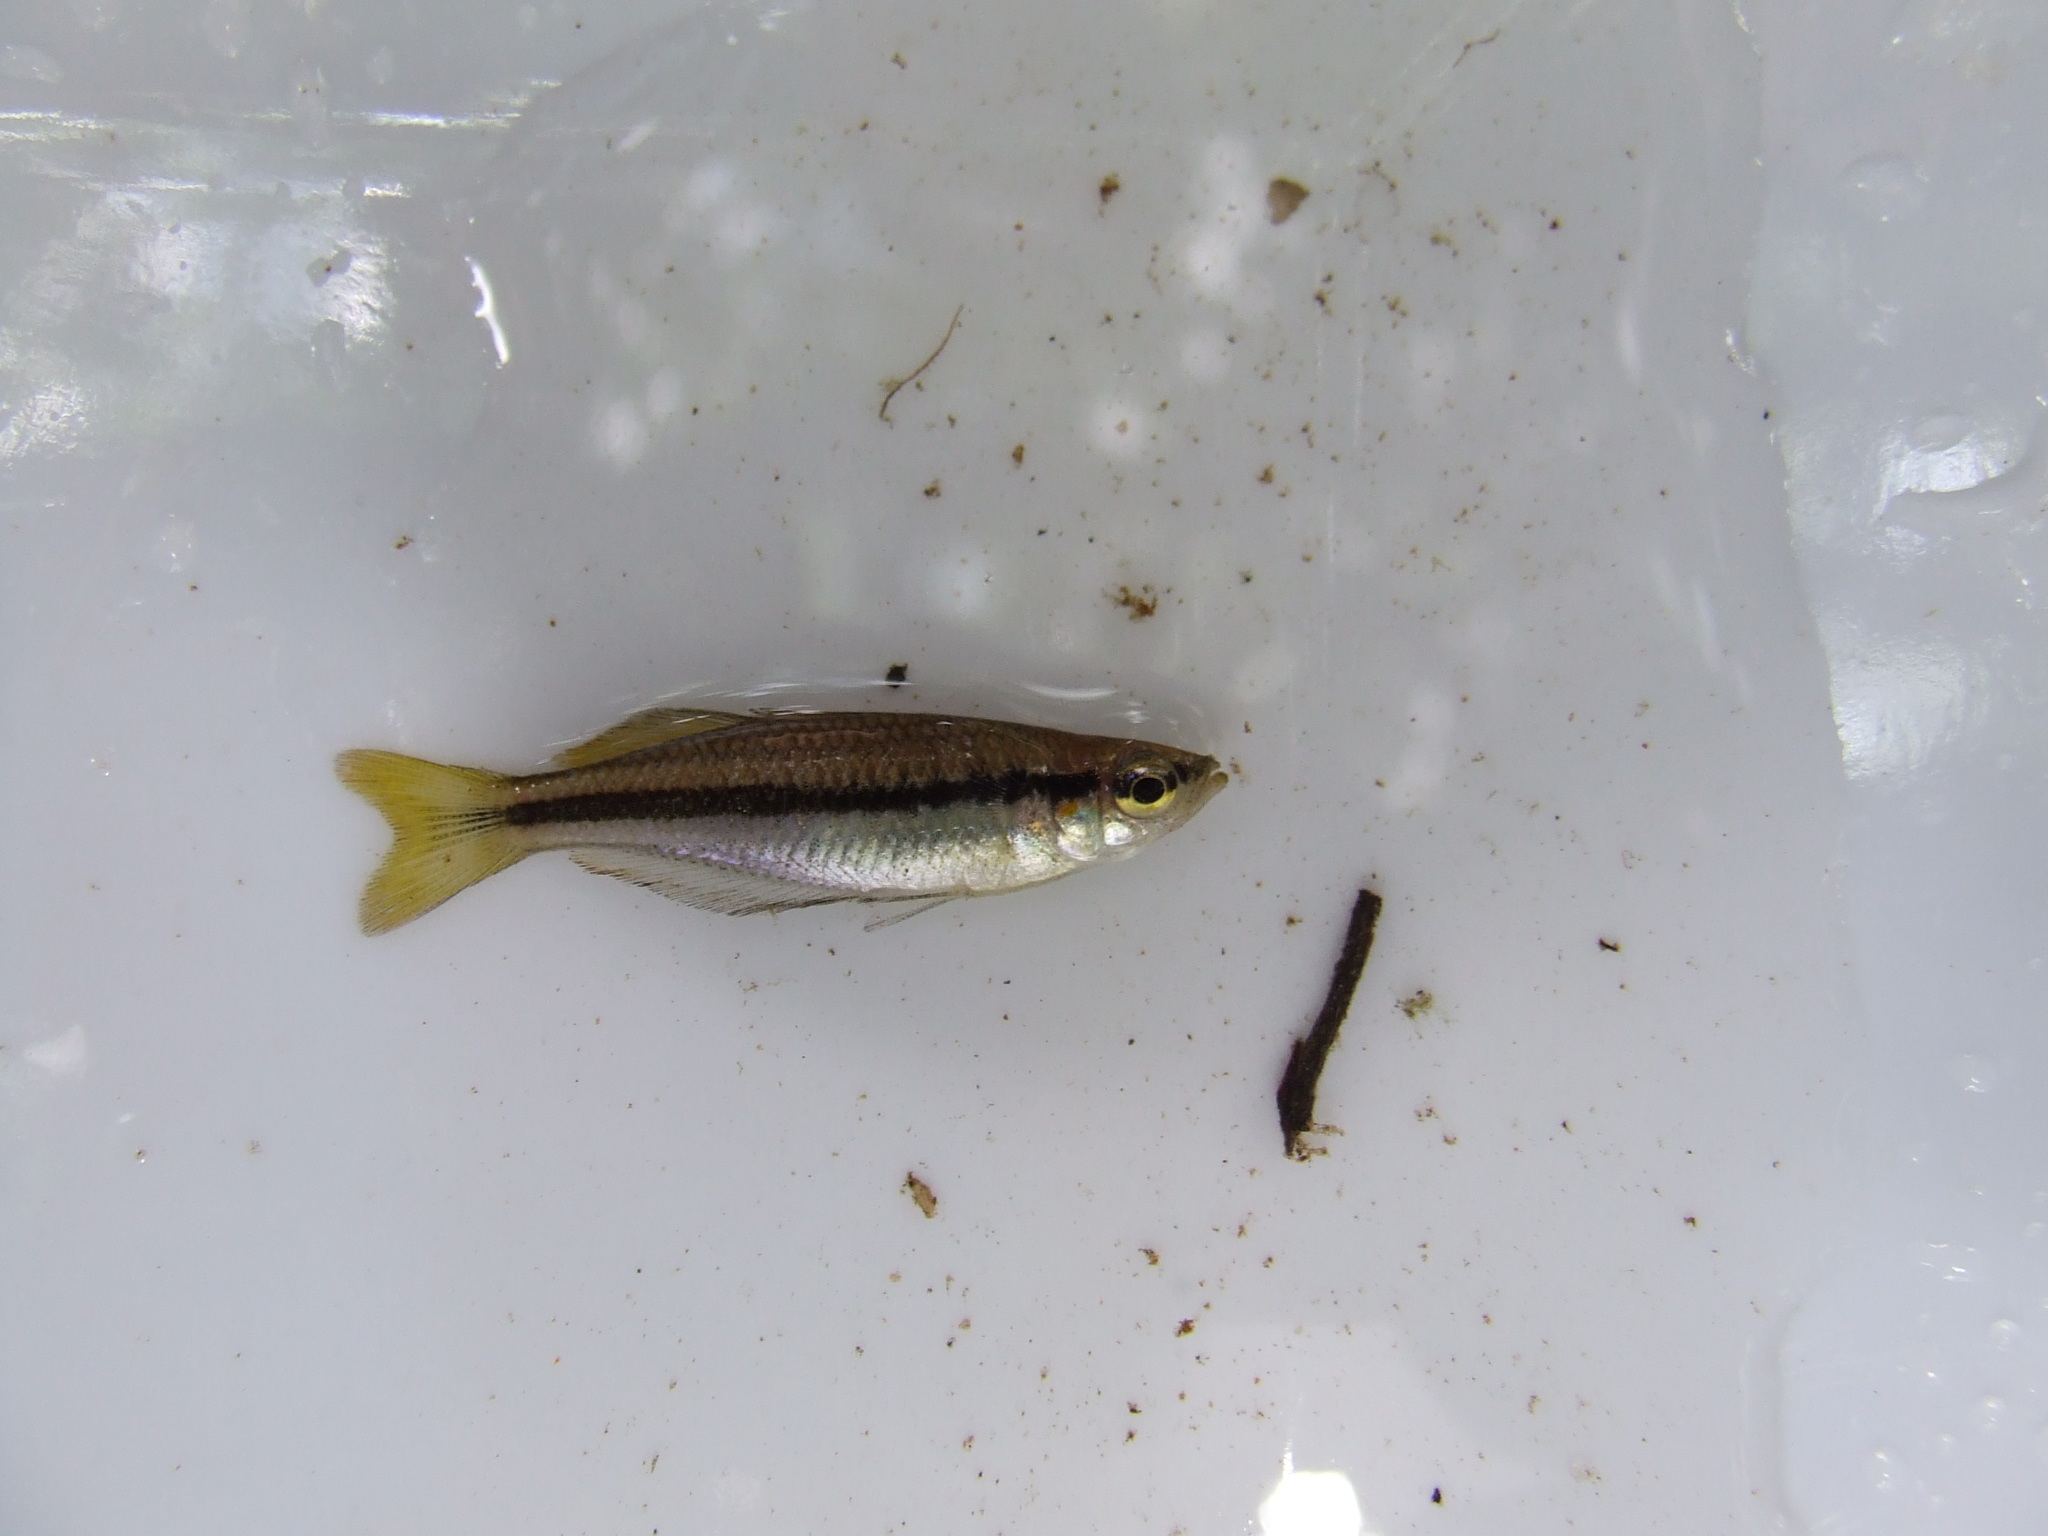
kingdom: Animalia
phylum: Chordata
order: Atheriniformes
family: Melanotaeniidae
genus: Melanotaenia
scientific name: Melanotaenia nigrans
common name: Australian rainbow
